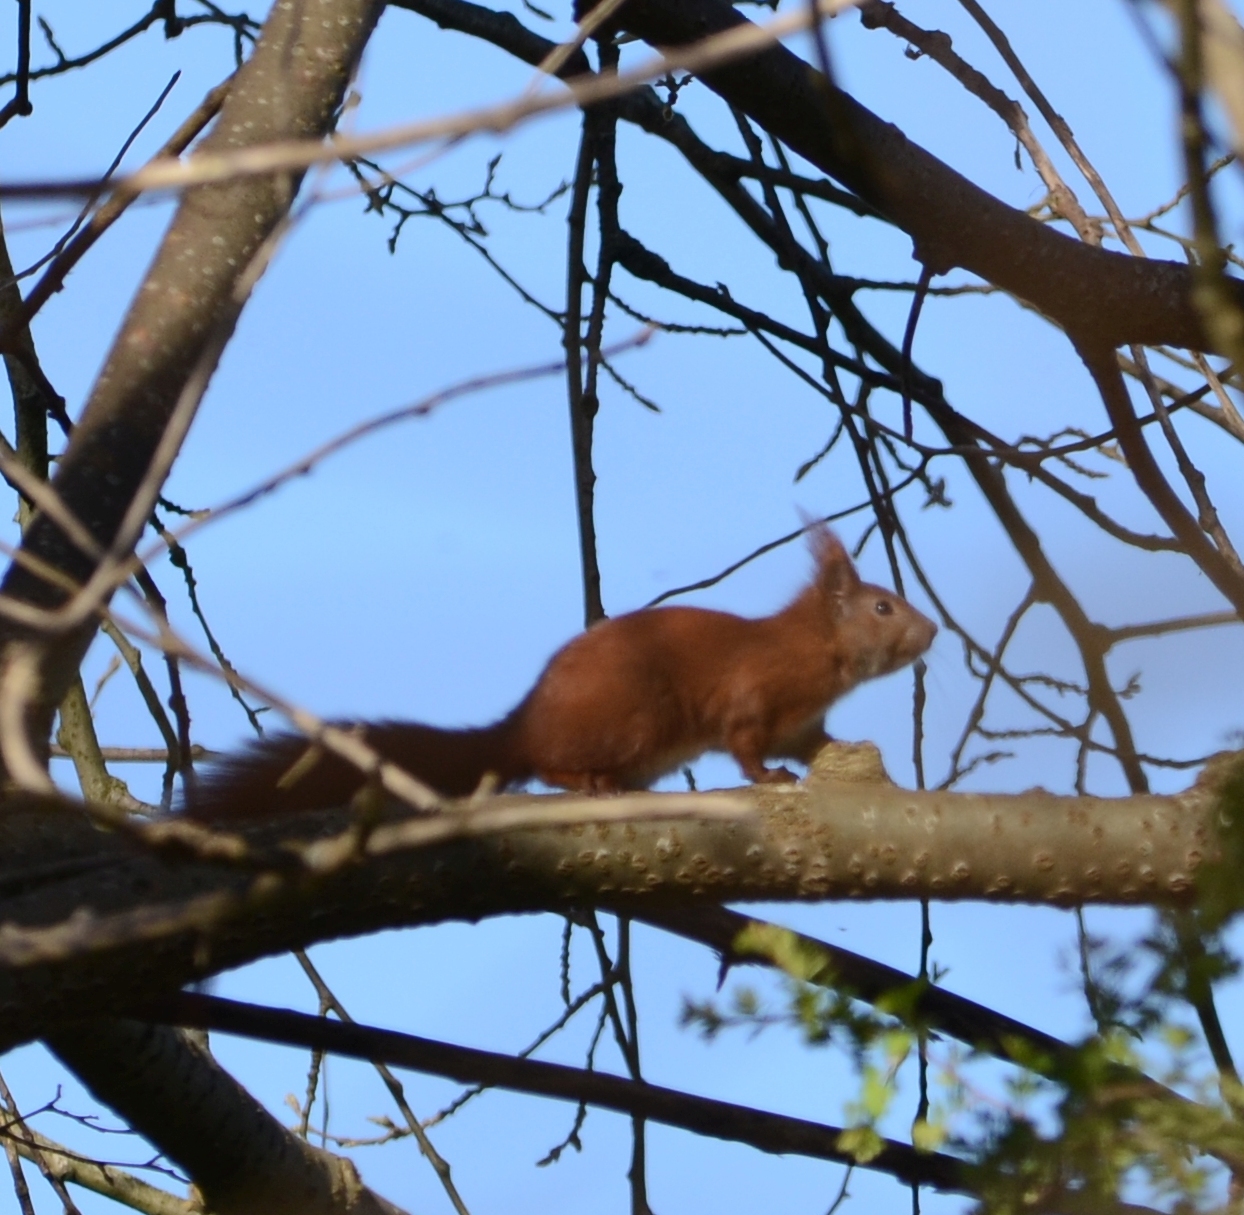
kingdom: Animalia
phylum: Chordata
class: Mammalia
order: Rodentia
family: Sciuridae
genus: Sciurus
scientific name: Sciurus vulgaris
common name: Eurasian red squirrel
